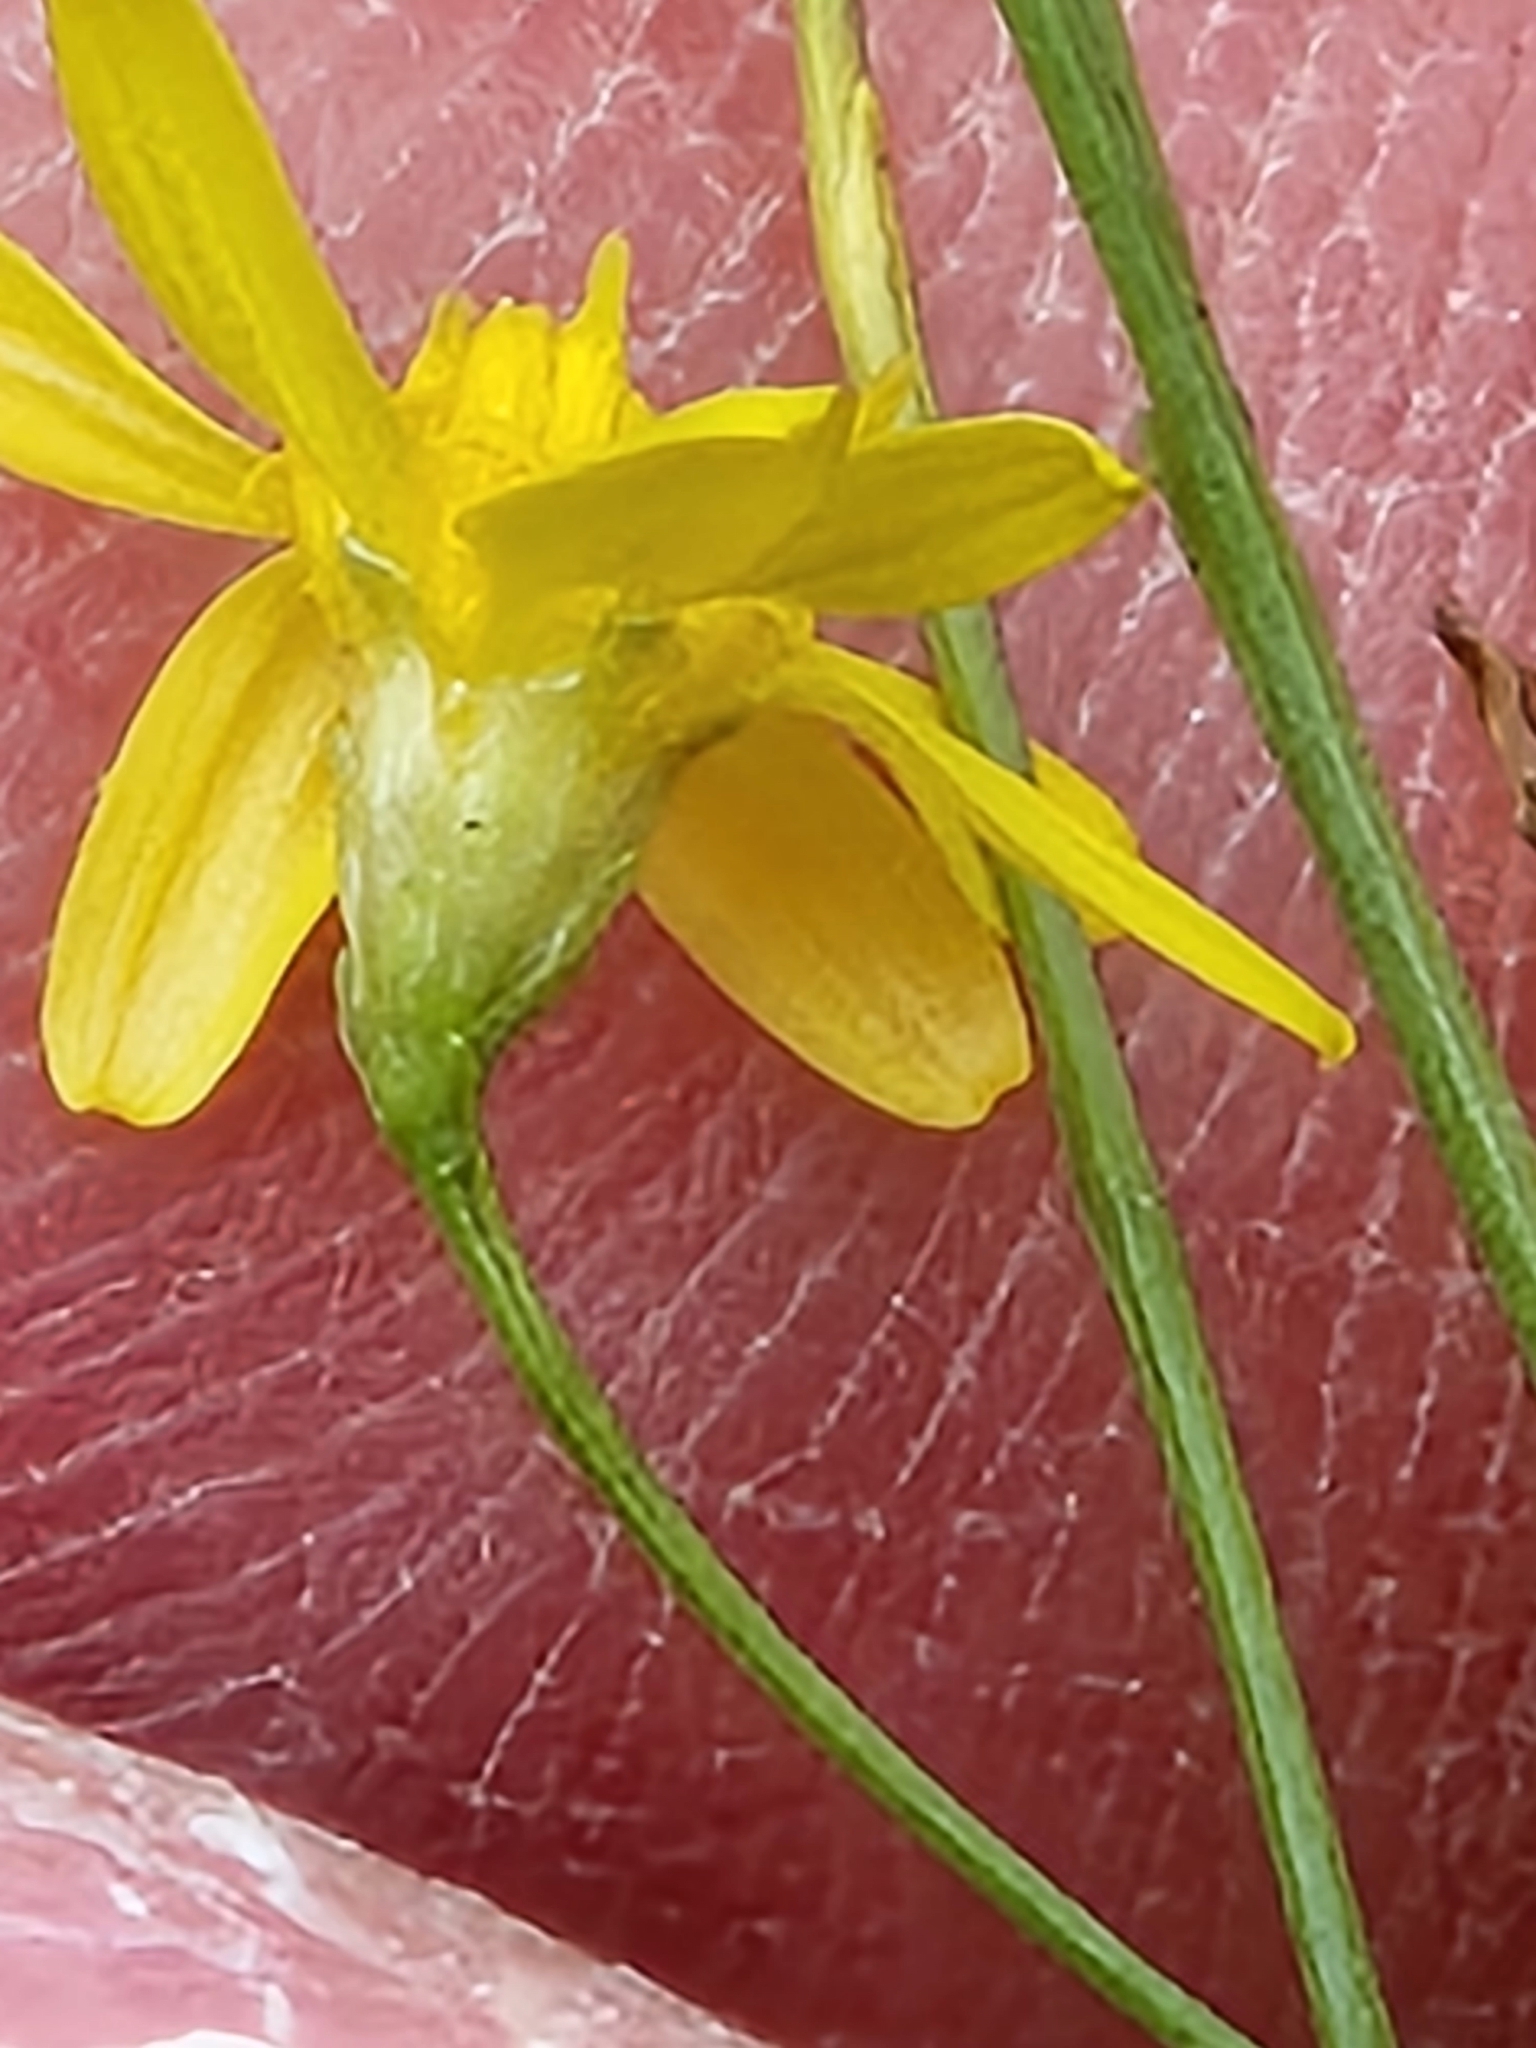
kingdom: Plantae
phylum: Tracheophyta
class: Magnoliopsida
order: Asterales
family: Asteraceae
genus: Gutierrezia
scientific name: Gutierrezia texana
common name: Texas snakeweed
